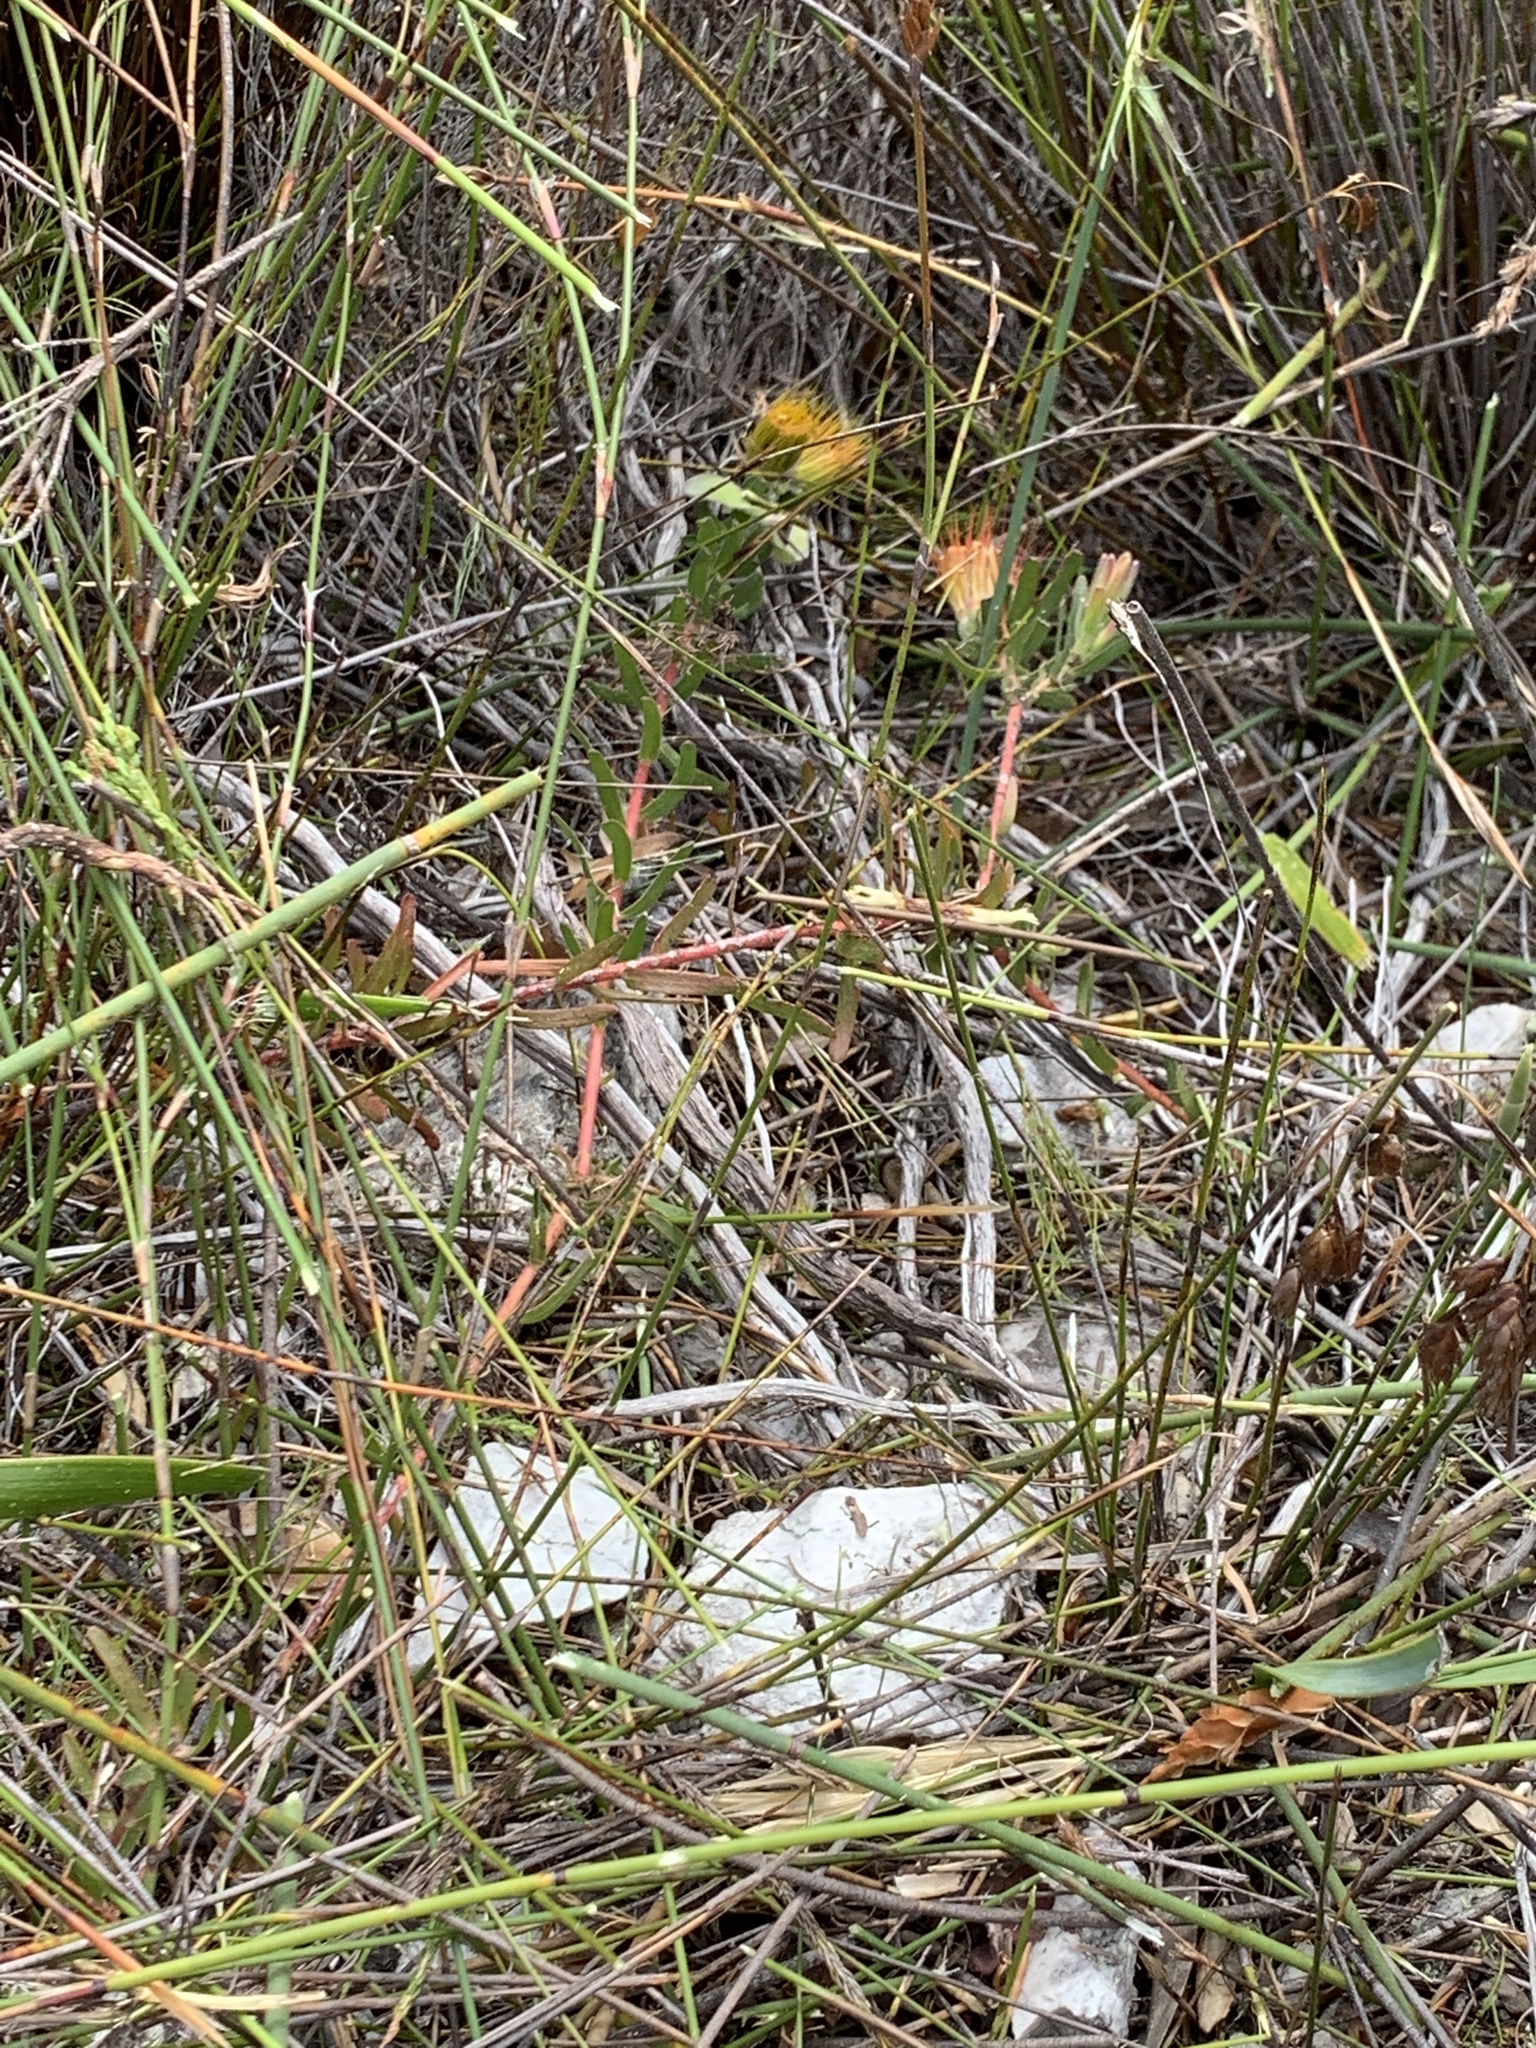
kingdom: Plantae
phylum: Tracheophyta
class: Magnoliopsida
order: Proteales
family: Proteaceae
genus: Leucospermum
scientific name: Leucospermum gracile
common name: Hermanus pincushion
